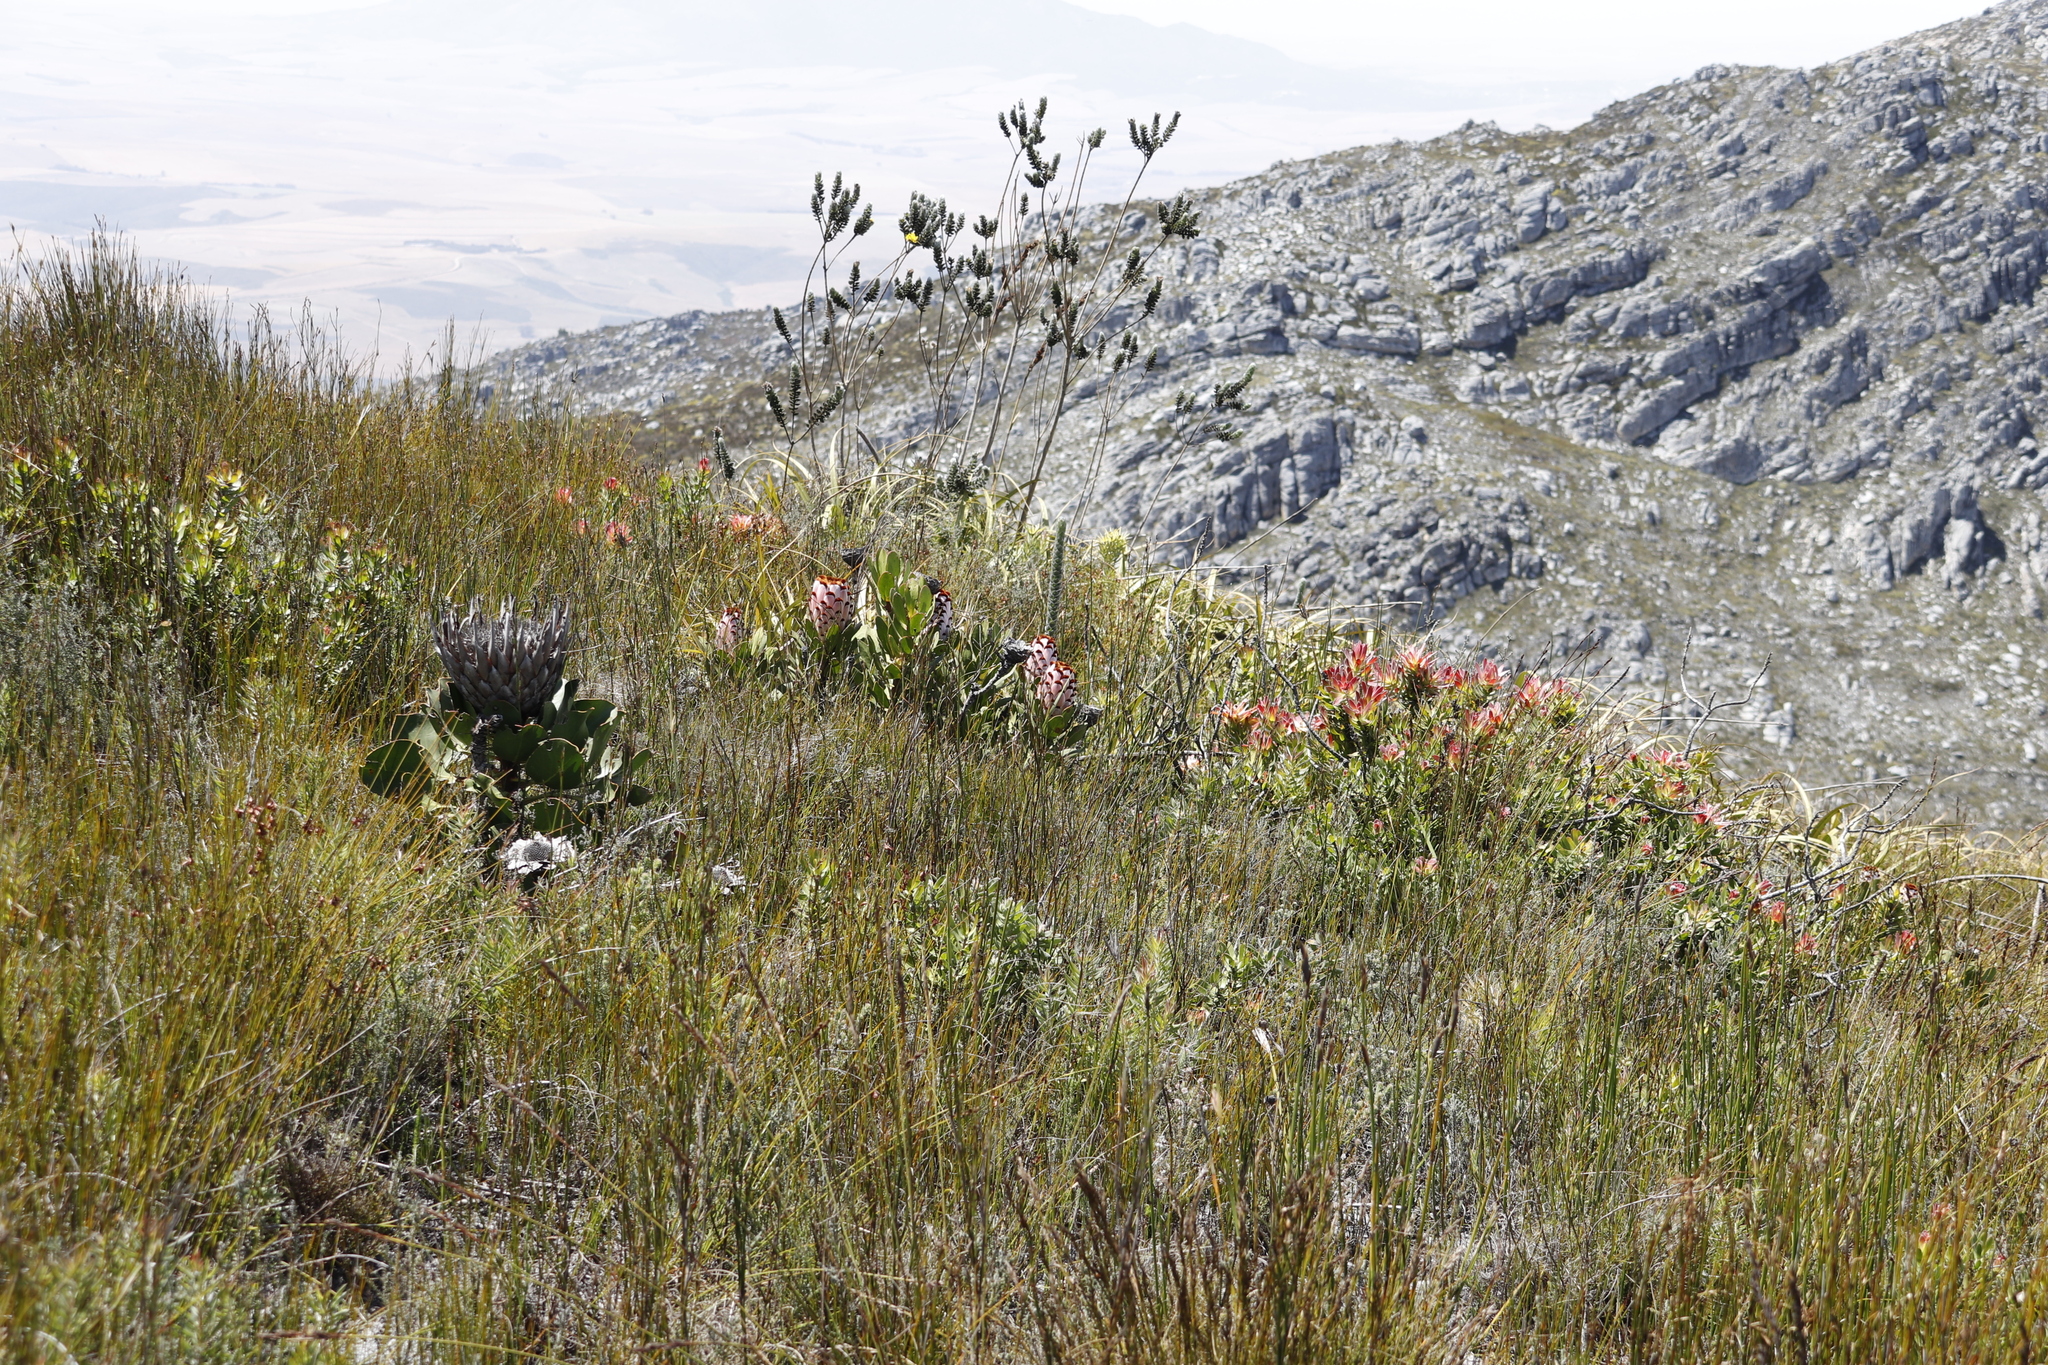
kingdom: Plantae
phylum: Tracheophyta
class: Magnoliopsida
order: Proteales
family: Proteaceae
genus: Protea
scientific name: Protea cynaroides
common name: King protea
